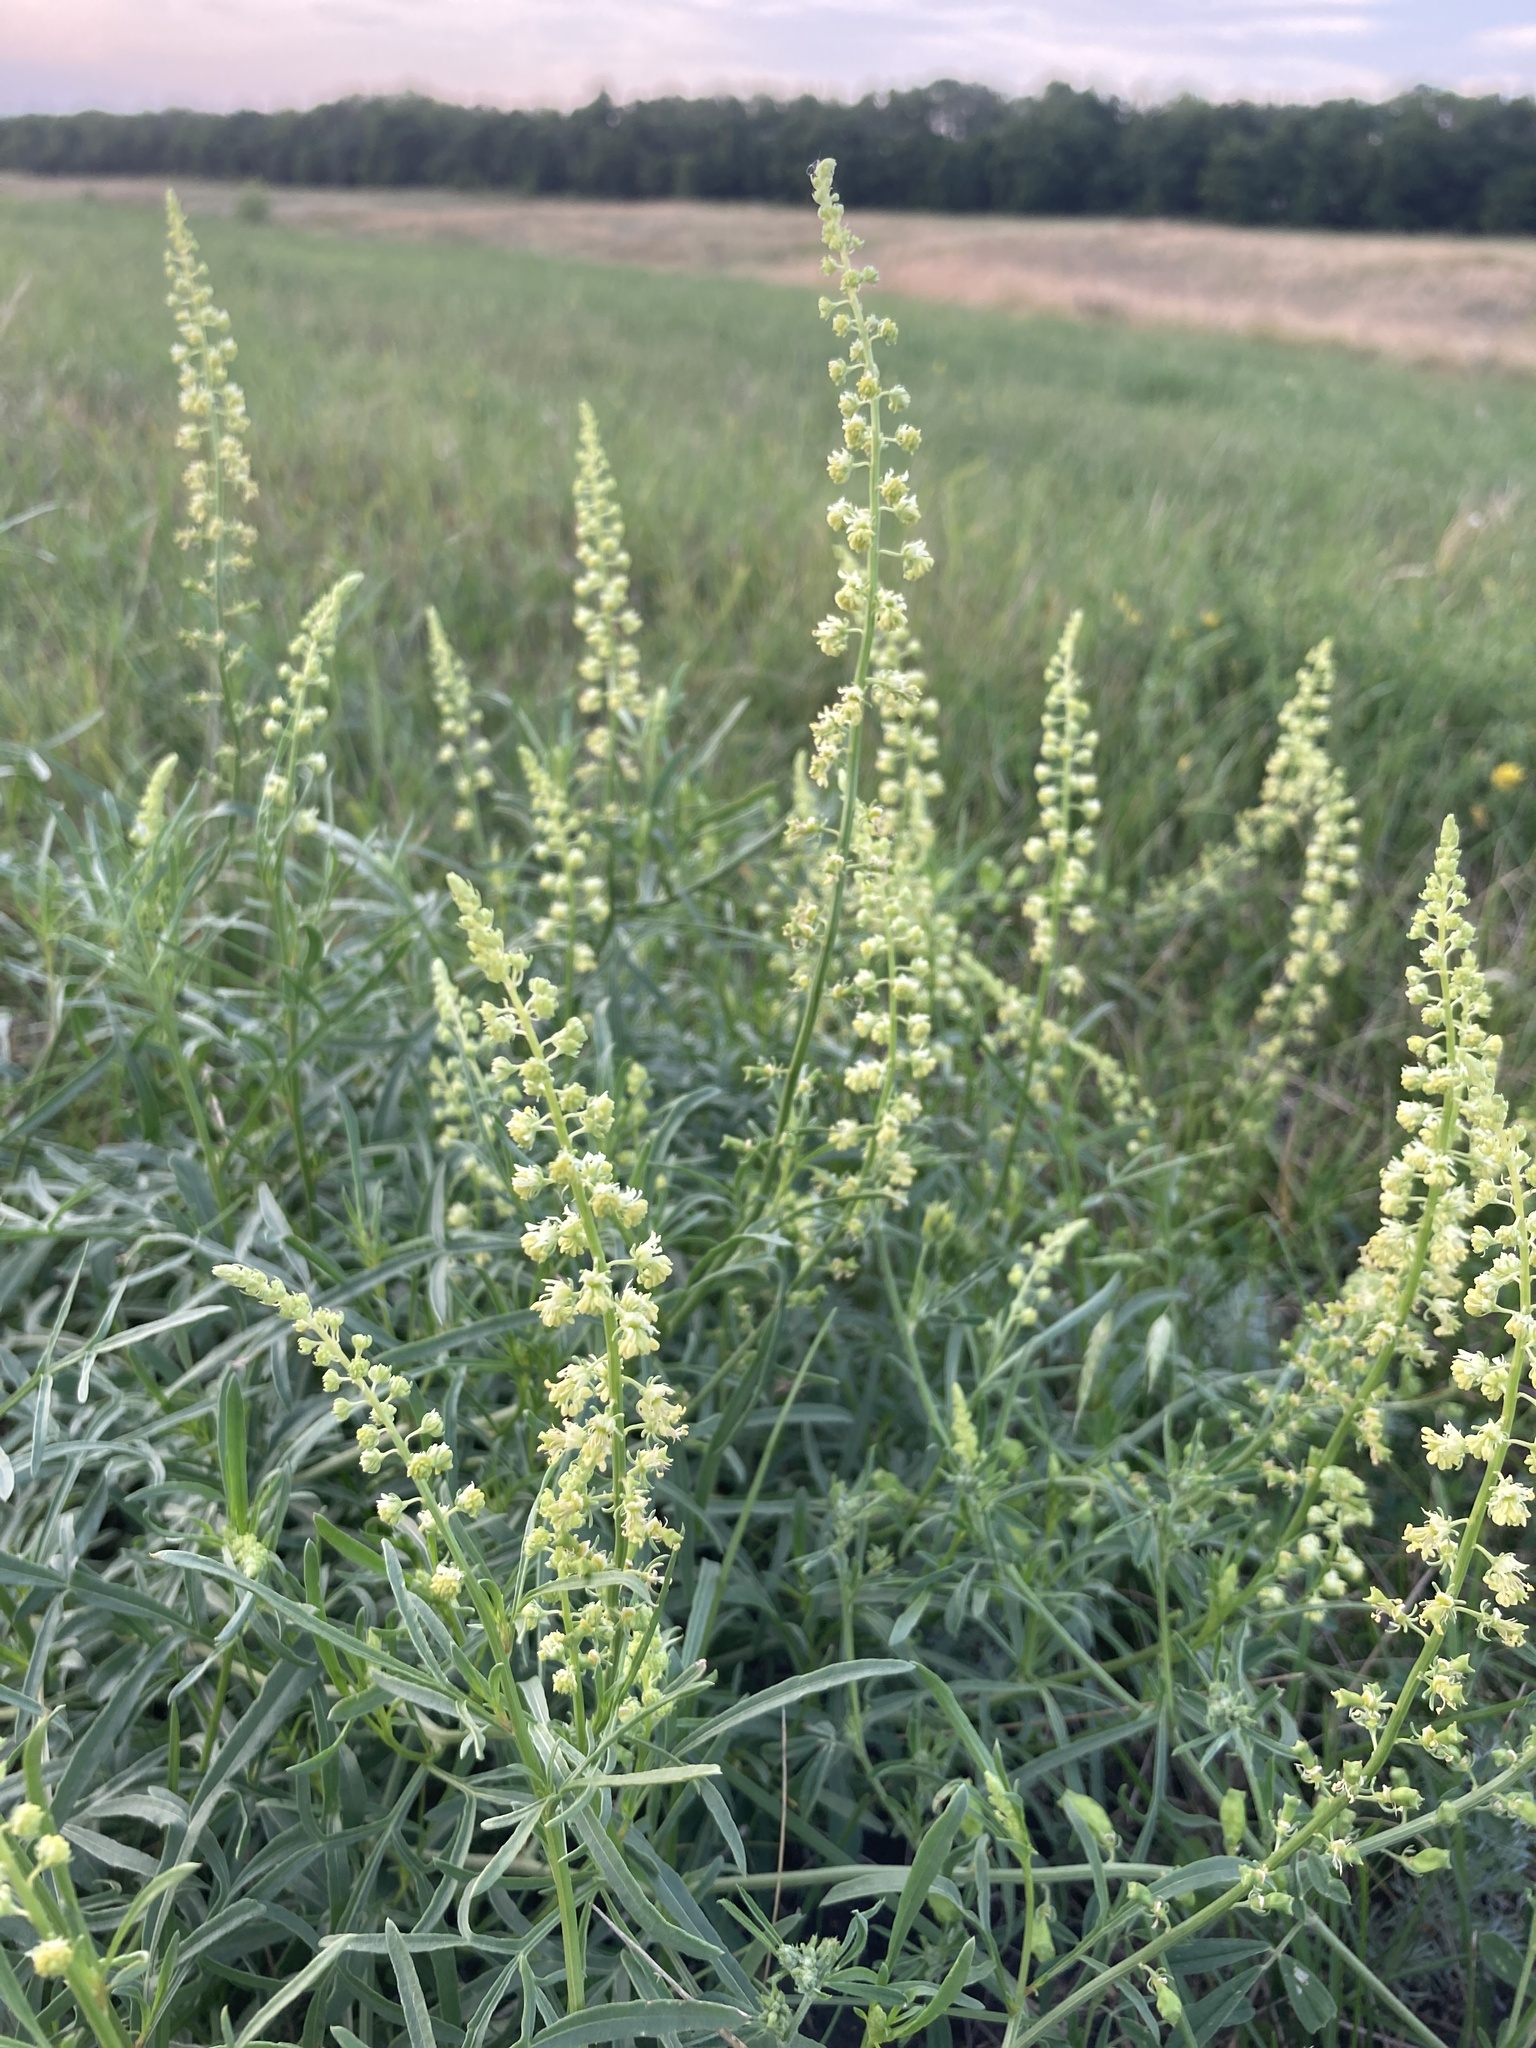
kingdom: Plantae
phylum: Tracheophyta
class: Magnoliopsida
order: Brassicales
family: Resedaceae
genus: Reseda
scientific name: Reseda lutea
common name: Wild mignonette
